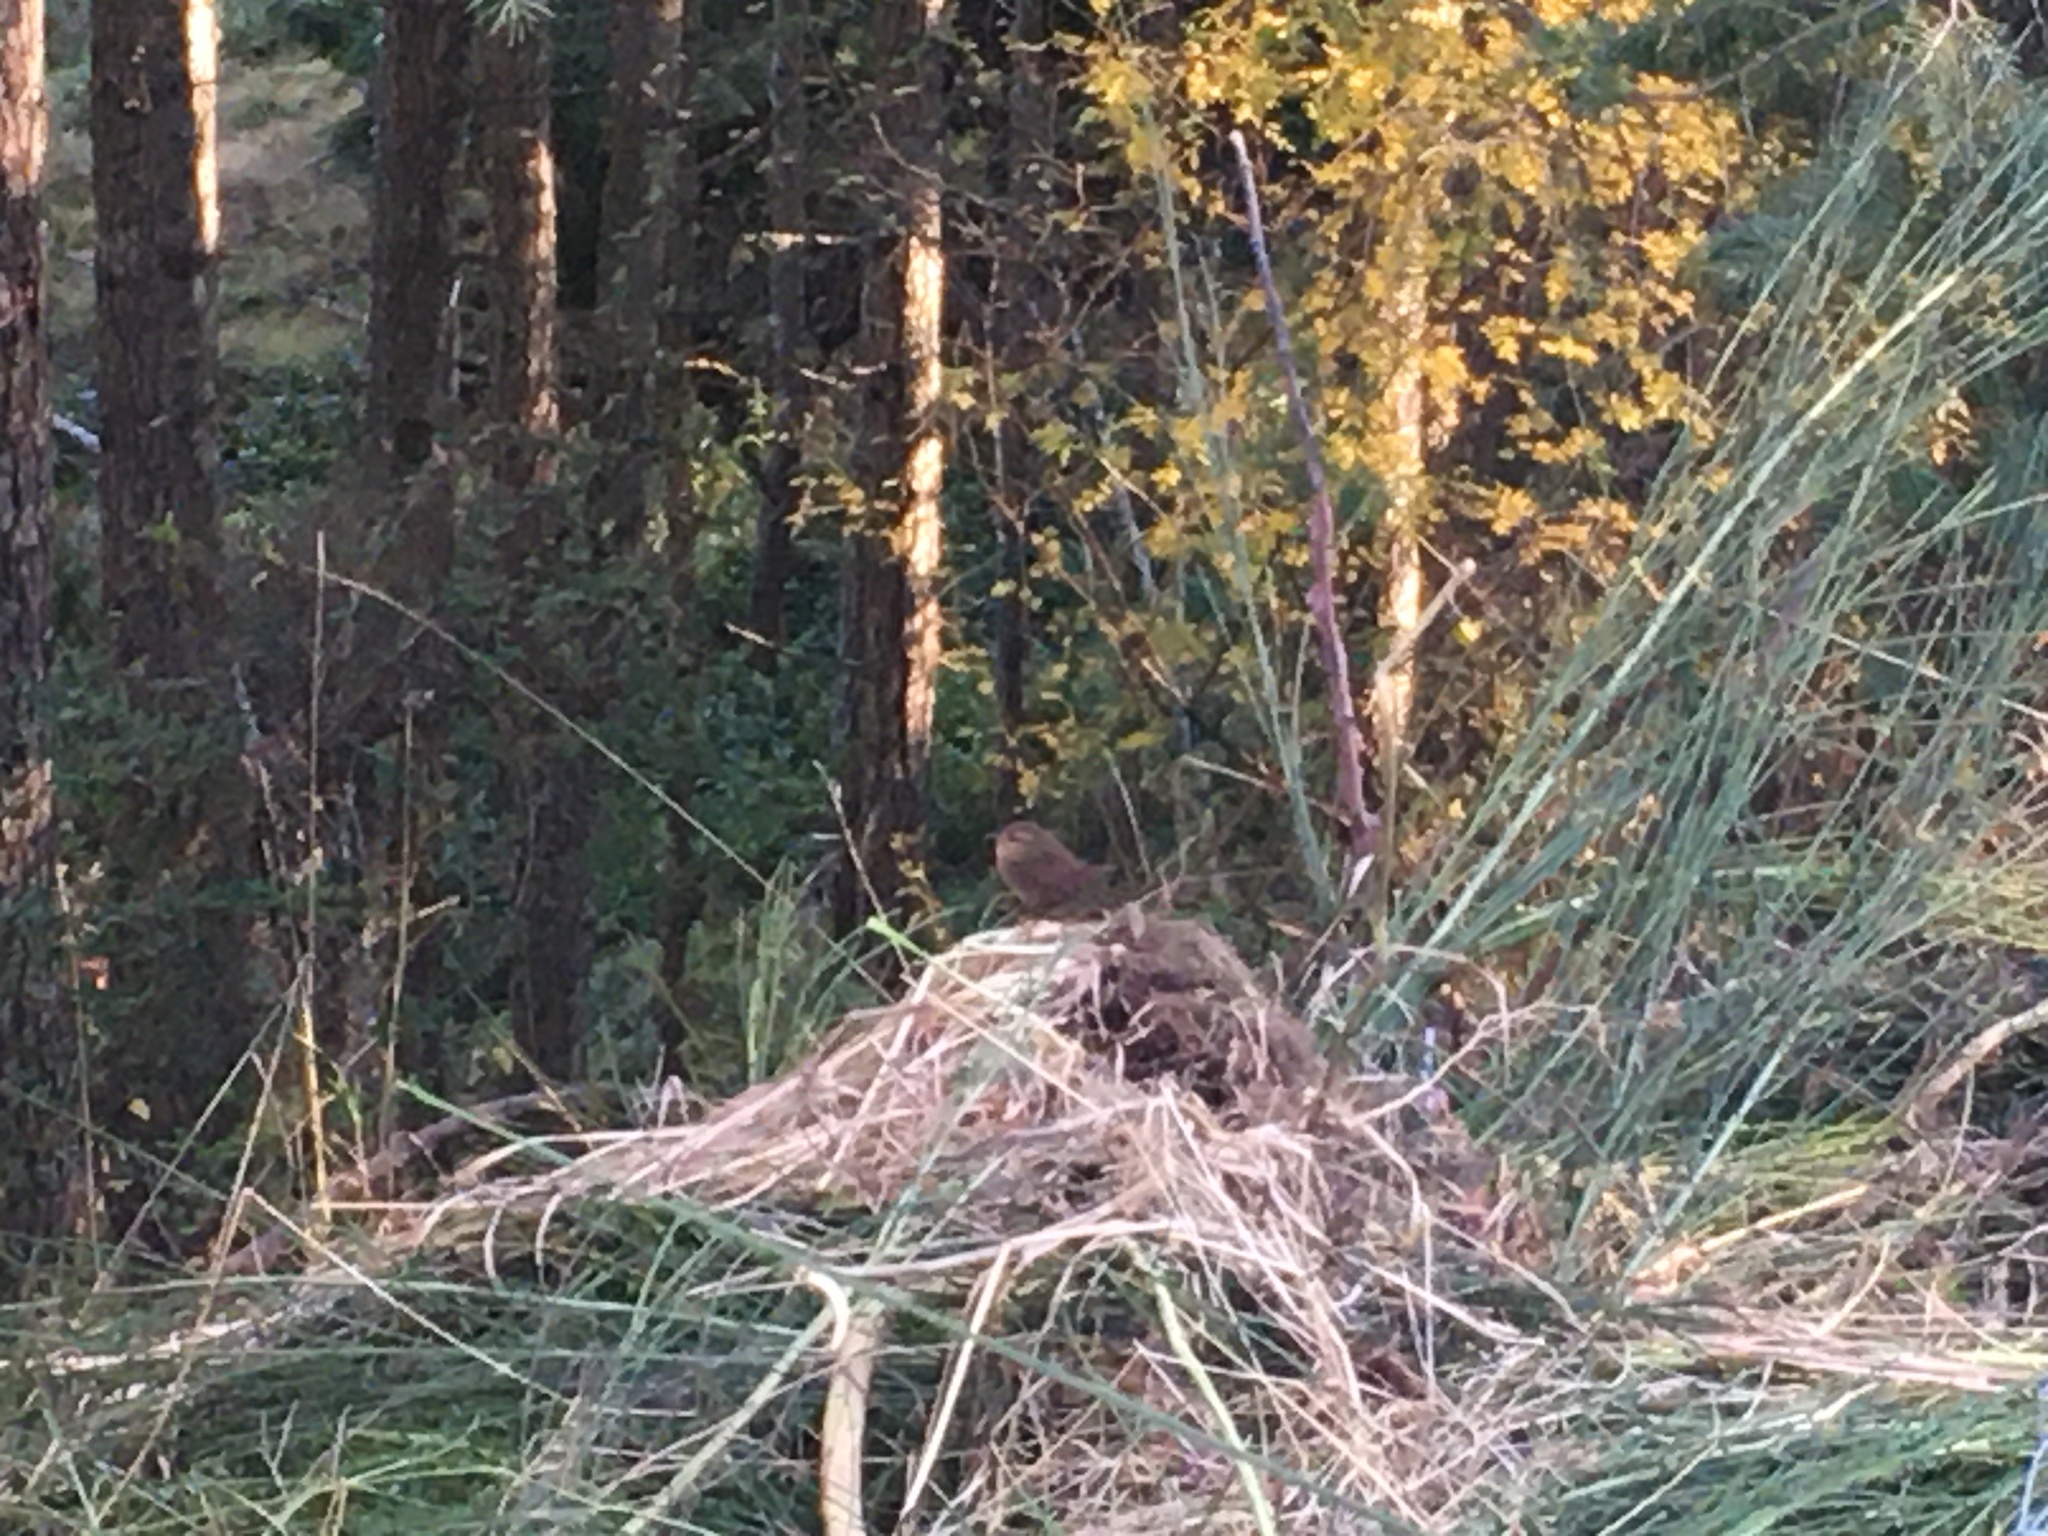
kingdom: Animalia
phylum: Chordata
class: Aves
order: Passeriformes
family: Troglodytidae
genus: Troglodytes
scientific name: Troglodytes pacificus
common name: Pacific wren
